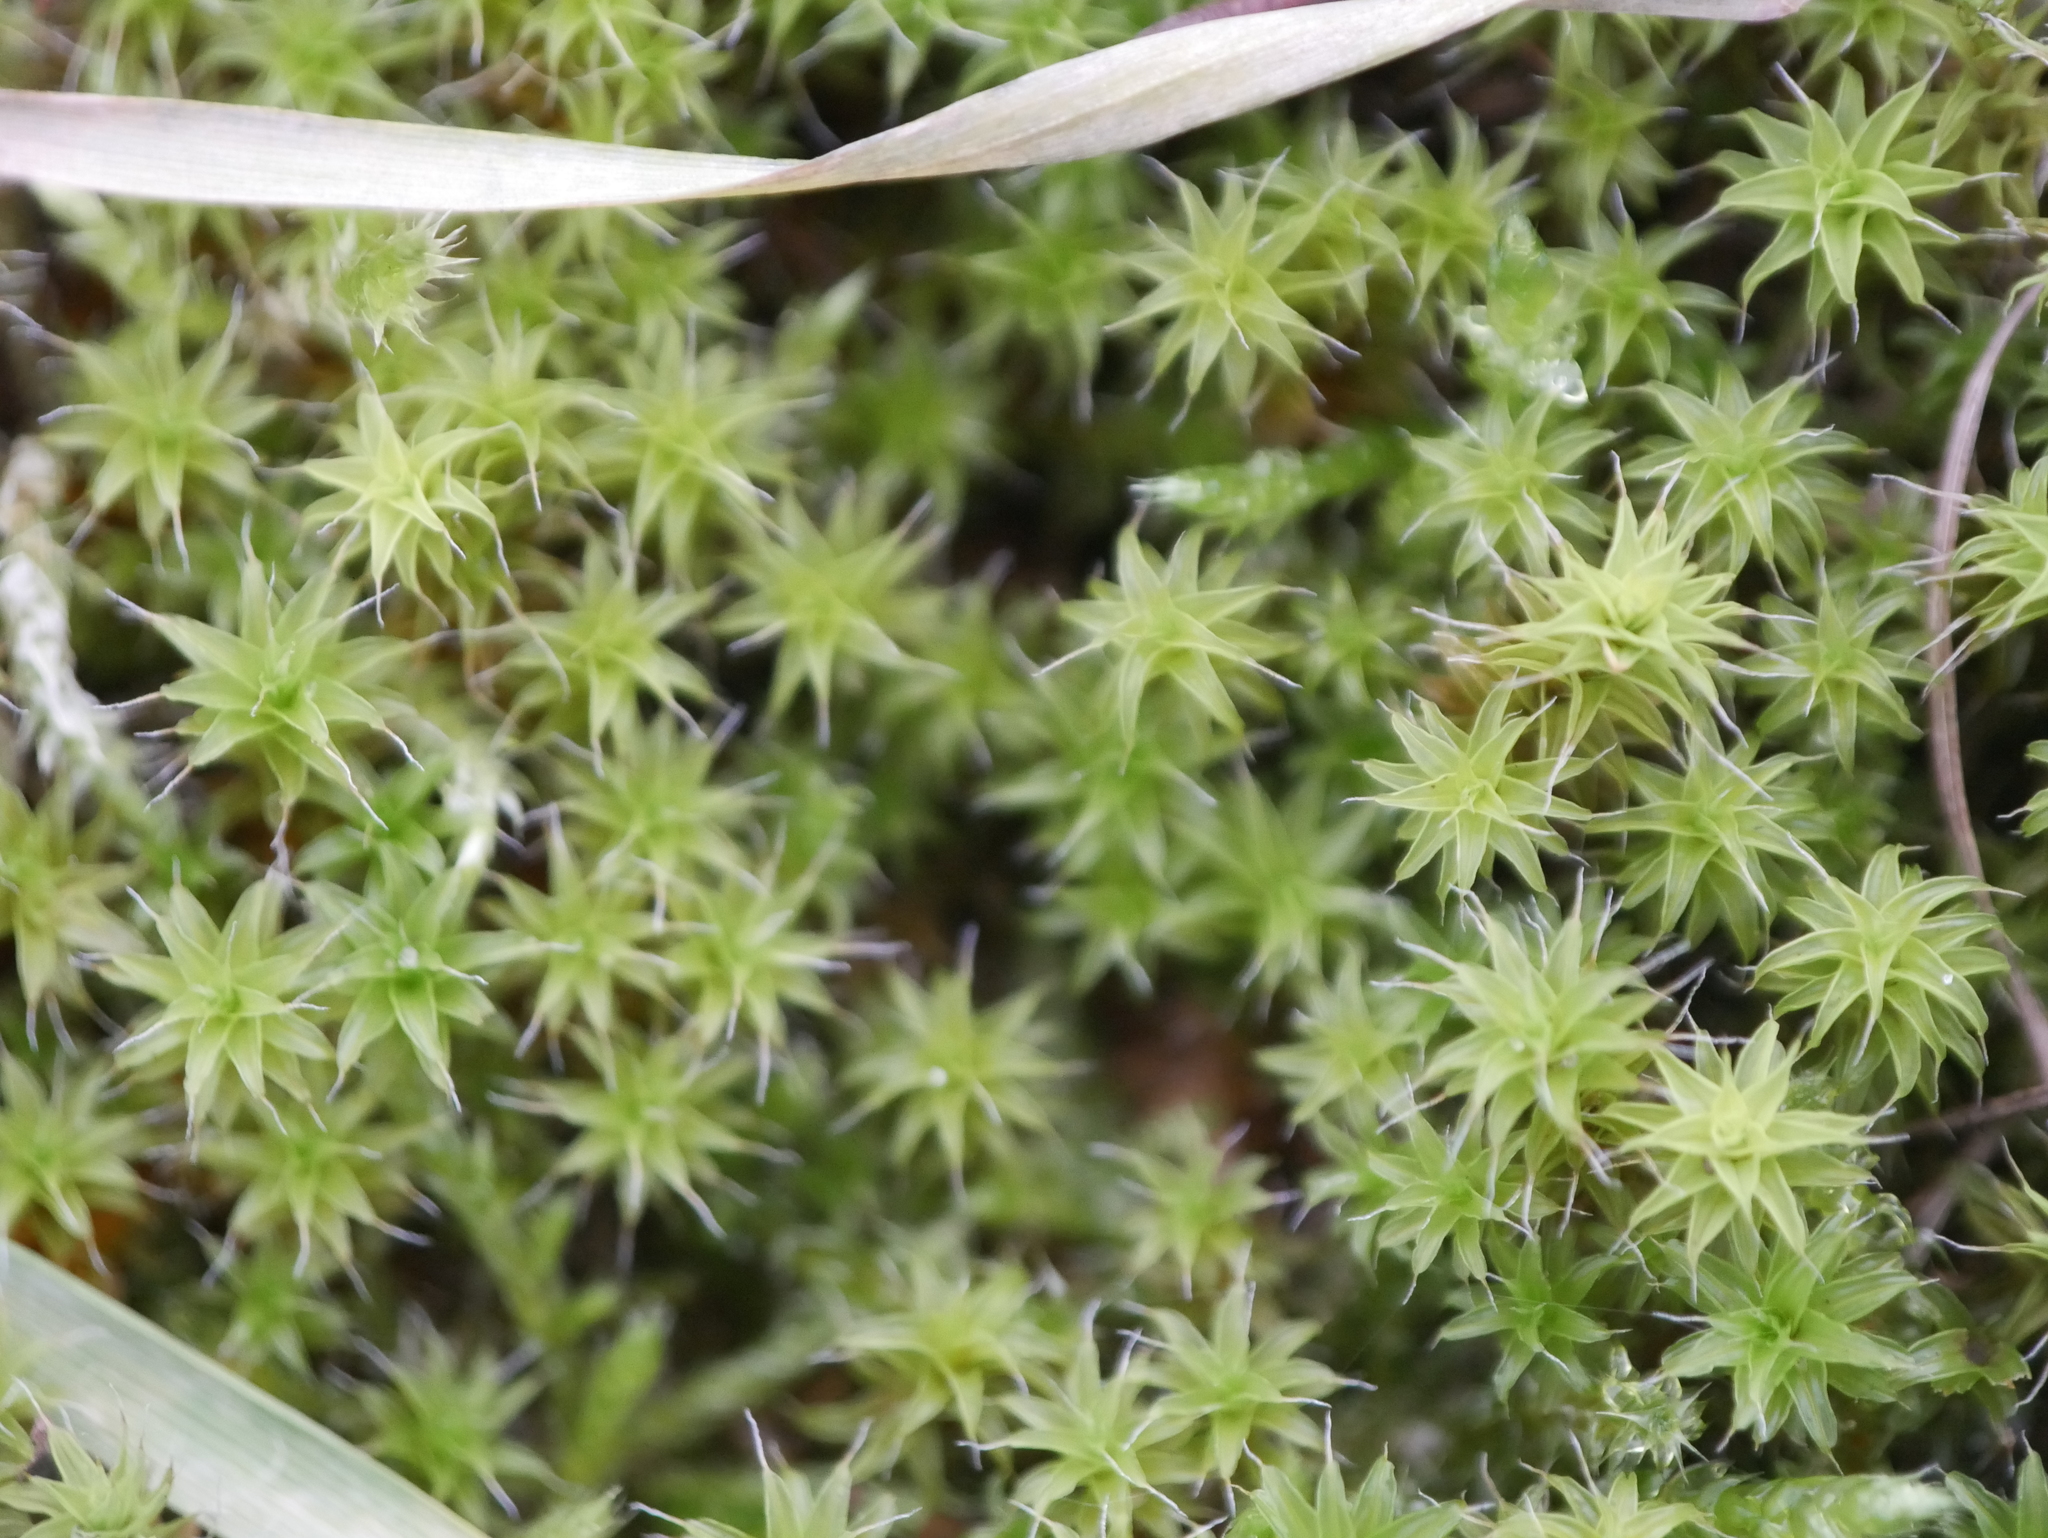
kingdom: Plantae
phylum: Bryophyta
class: Bryopsida
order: Pottiales
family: Pottiaceae
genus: Syntrichia
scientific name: Syntrichia ruralis
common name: Sidewalk screw moss
